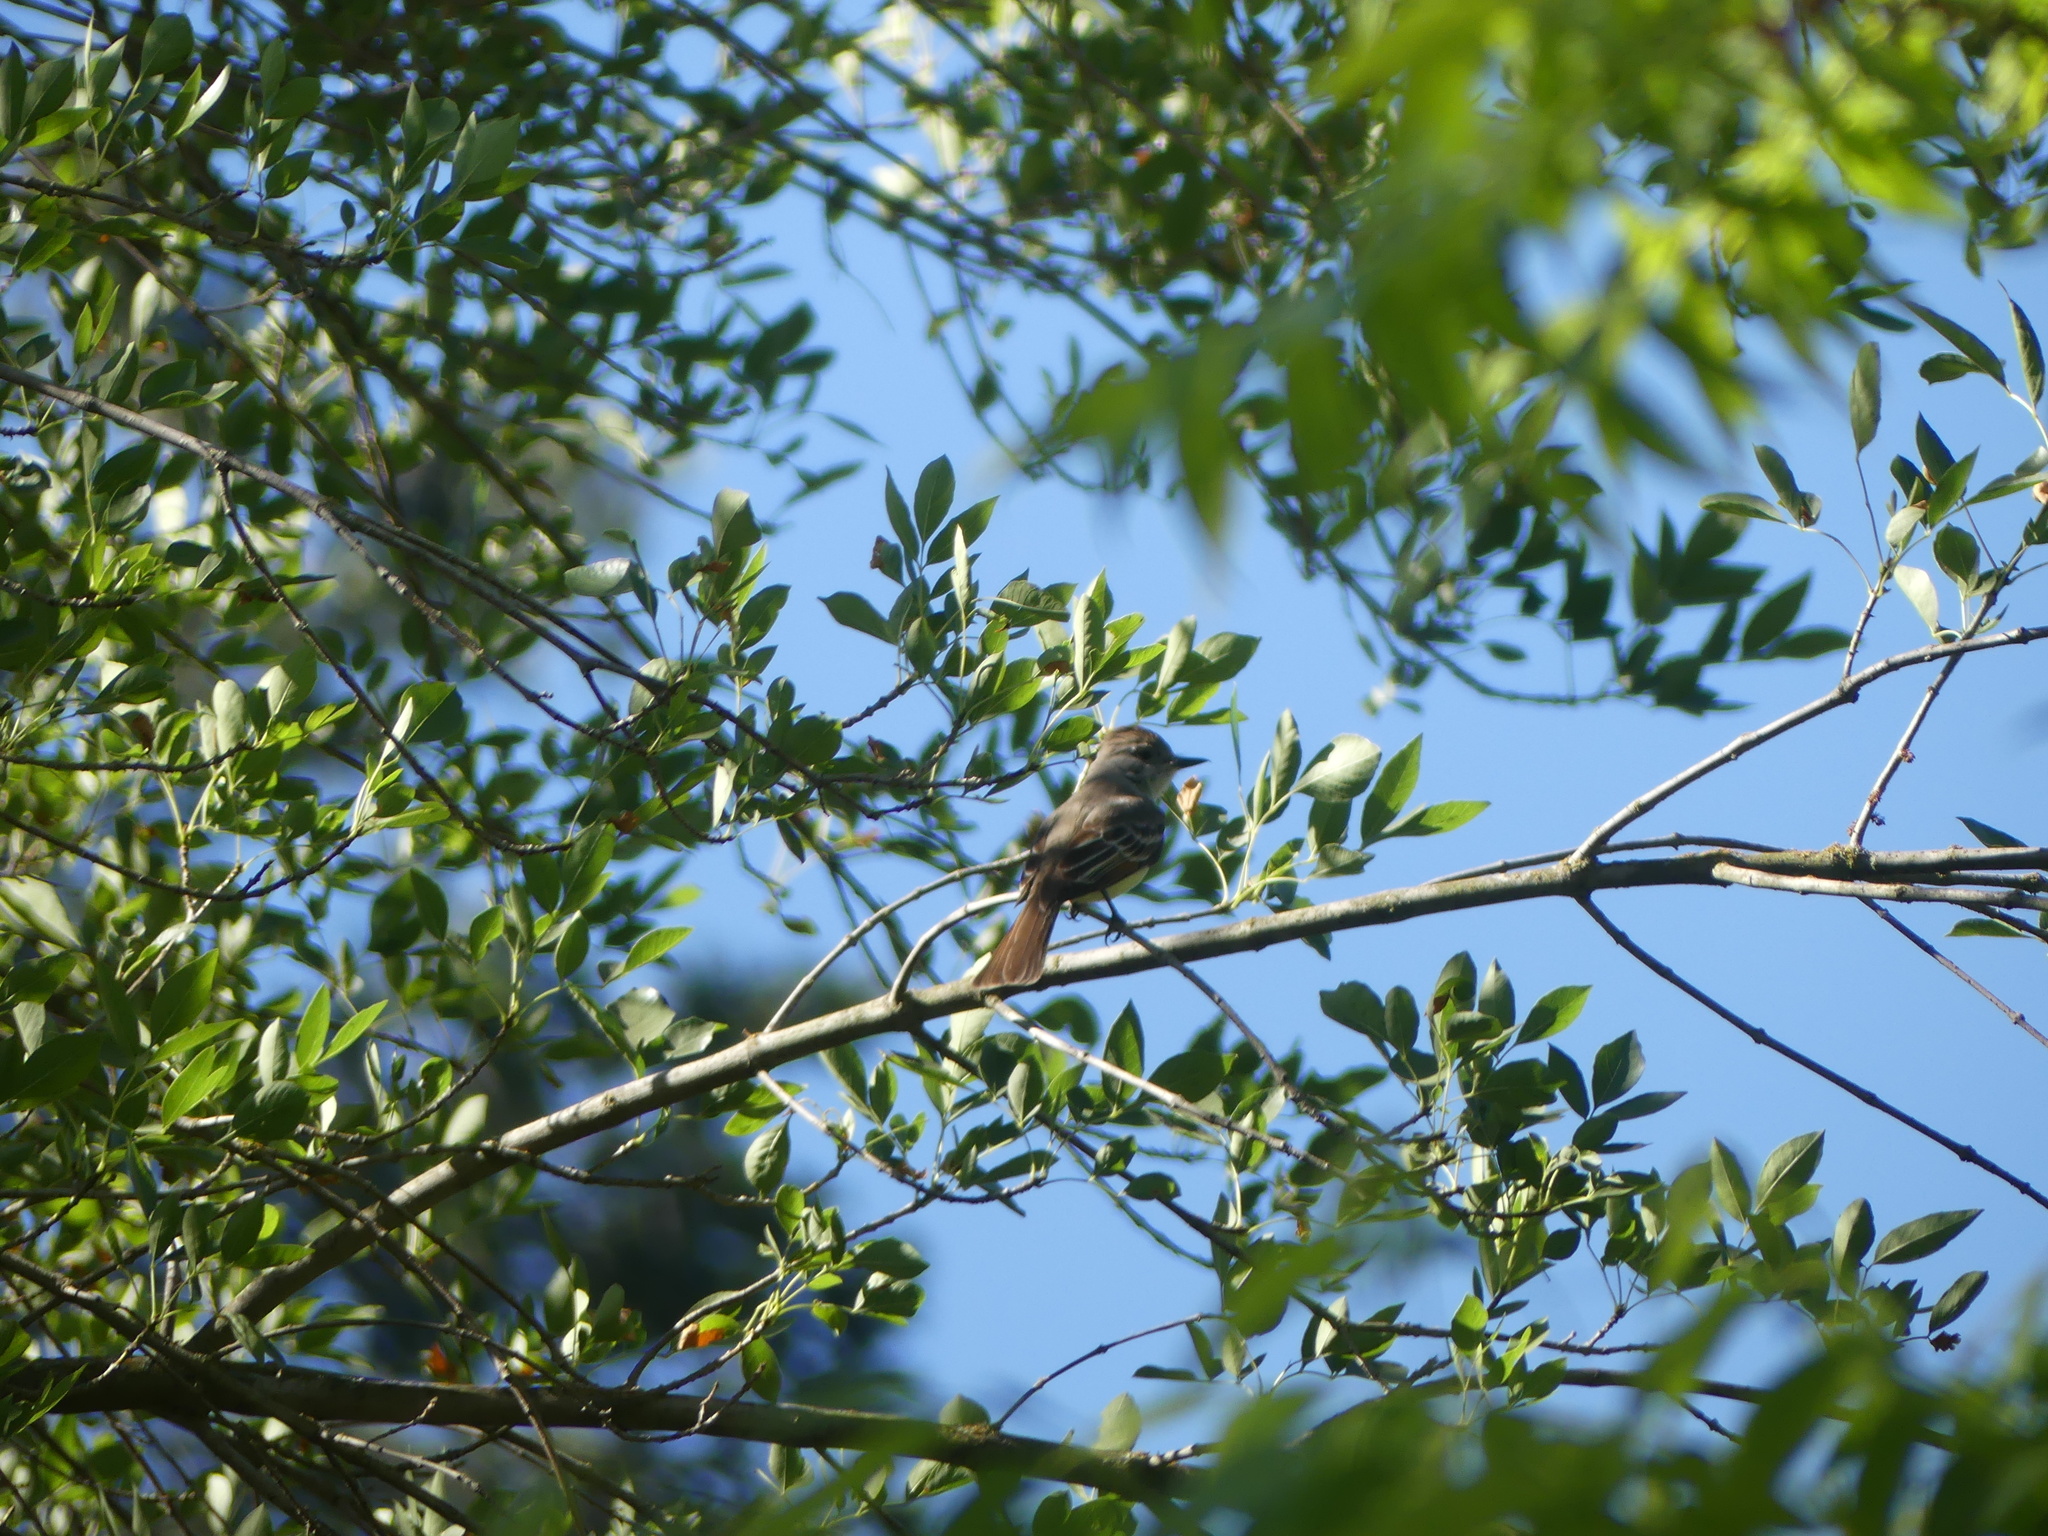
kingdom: Animalia
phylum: Chordata
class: Aves
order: Passeriformes
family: Tyrannidae
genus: Myiarchus
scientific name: Myiarchus cinerascens
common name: Ash-throated flycatcher
